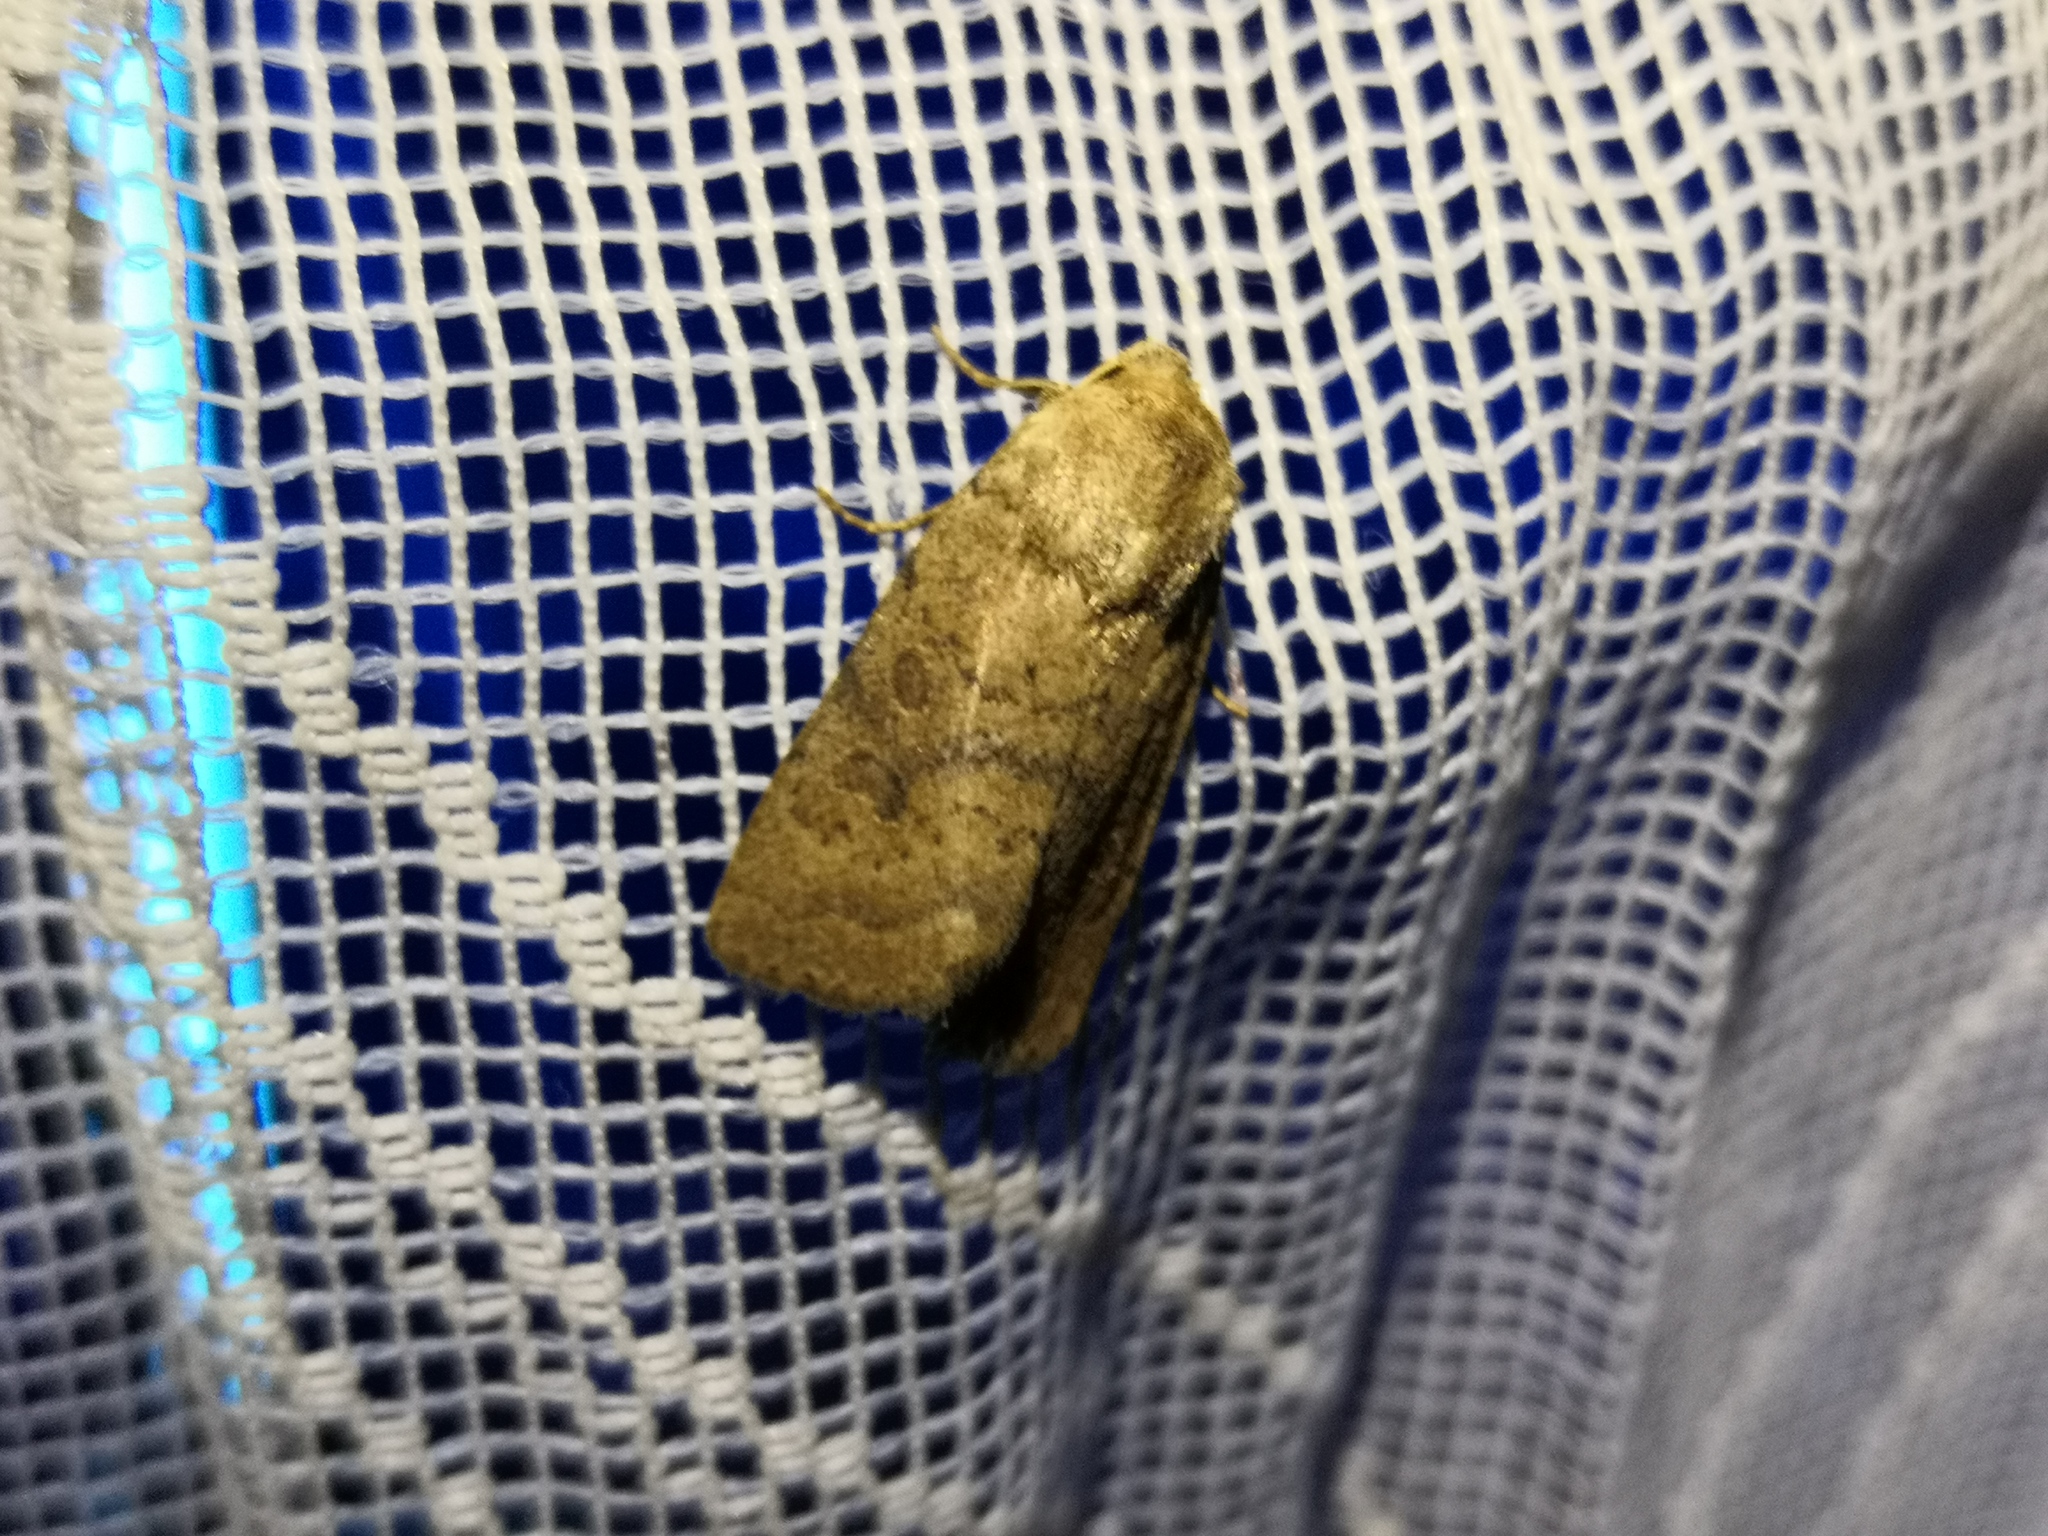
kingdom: Animalia
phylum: Arthropoda
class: Insecta
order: Lepidoptera
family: Noctuidae
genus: Hoplodrina
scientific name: Hoplodrina octogenaria
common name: Uncertain
